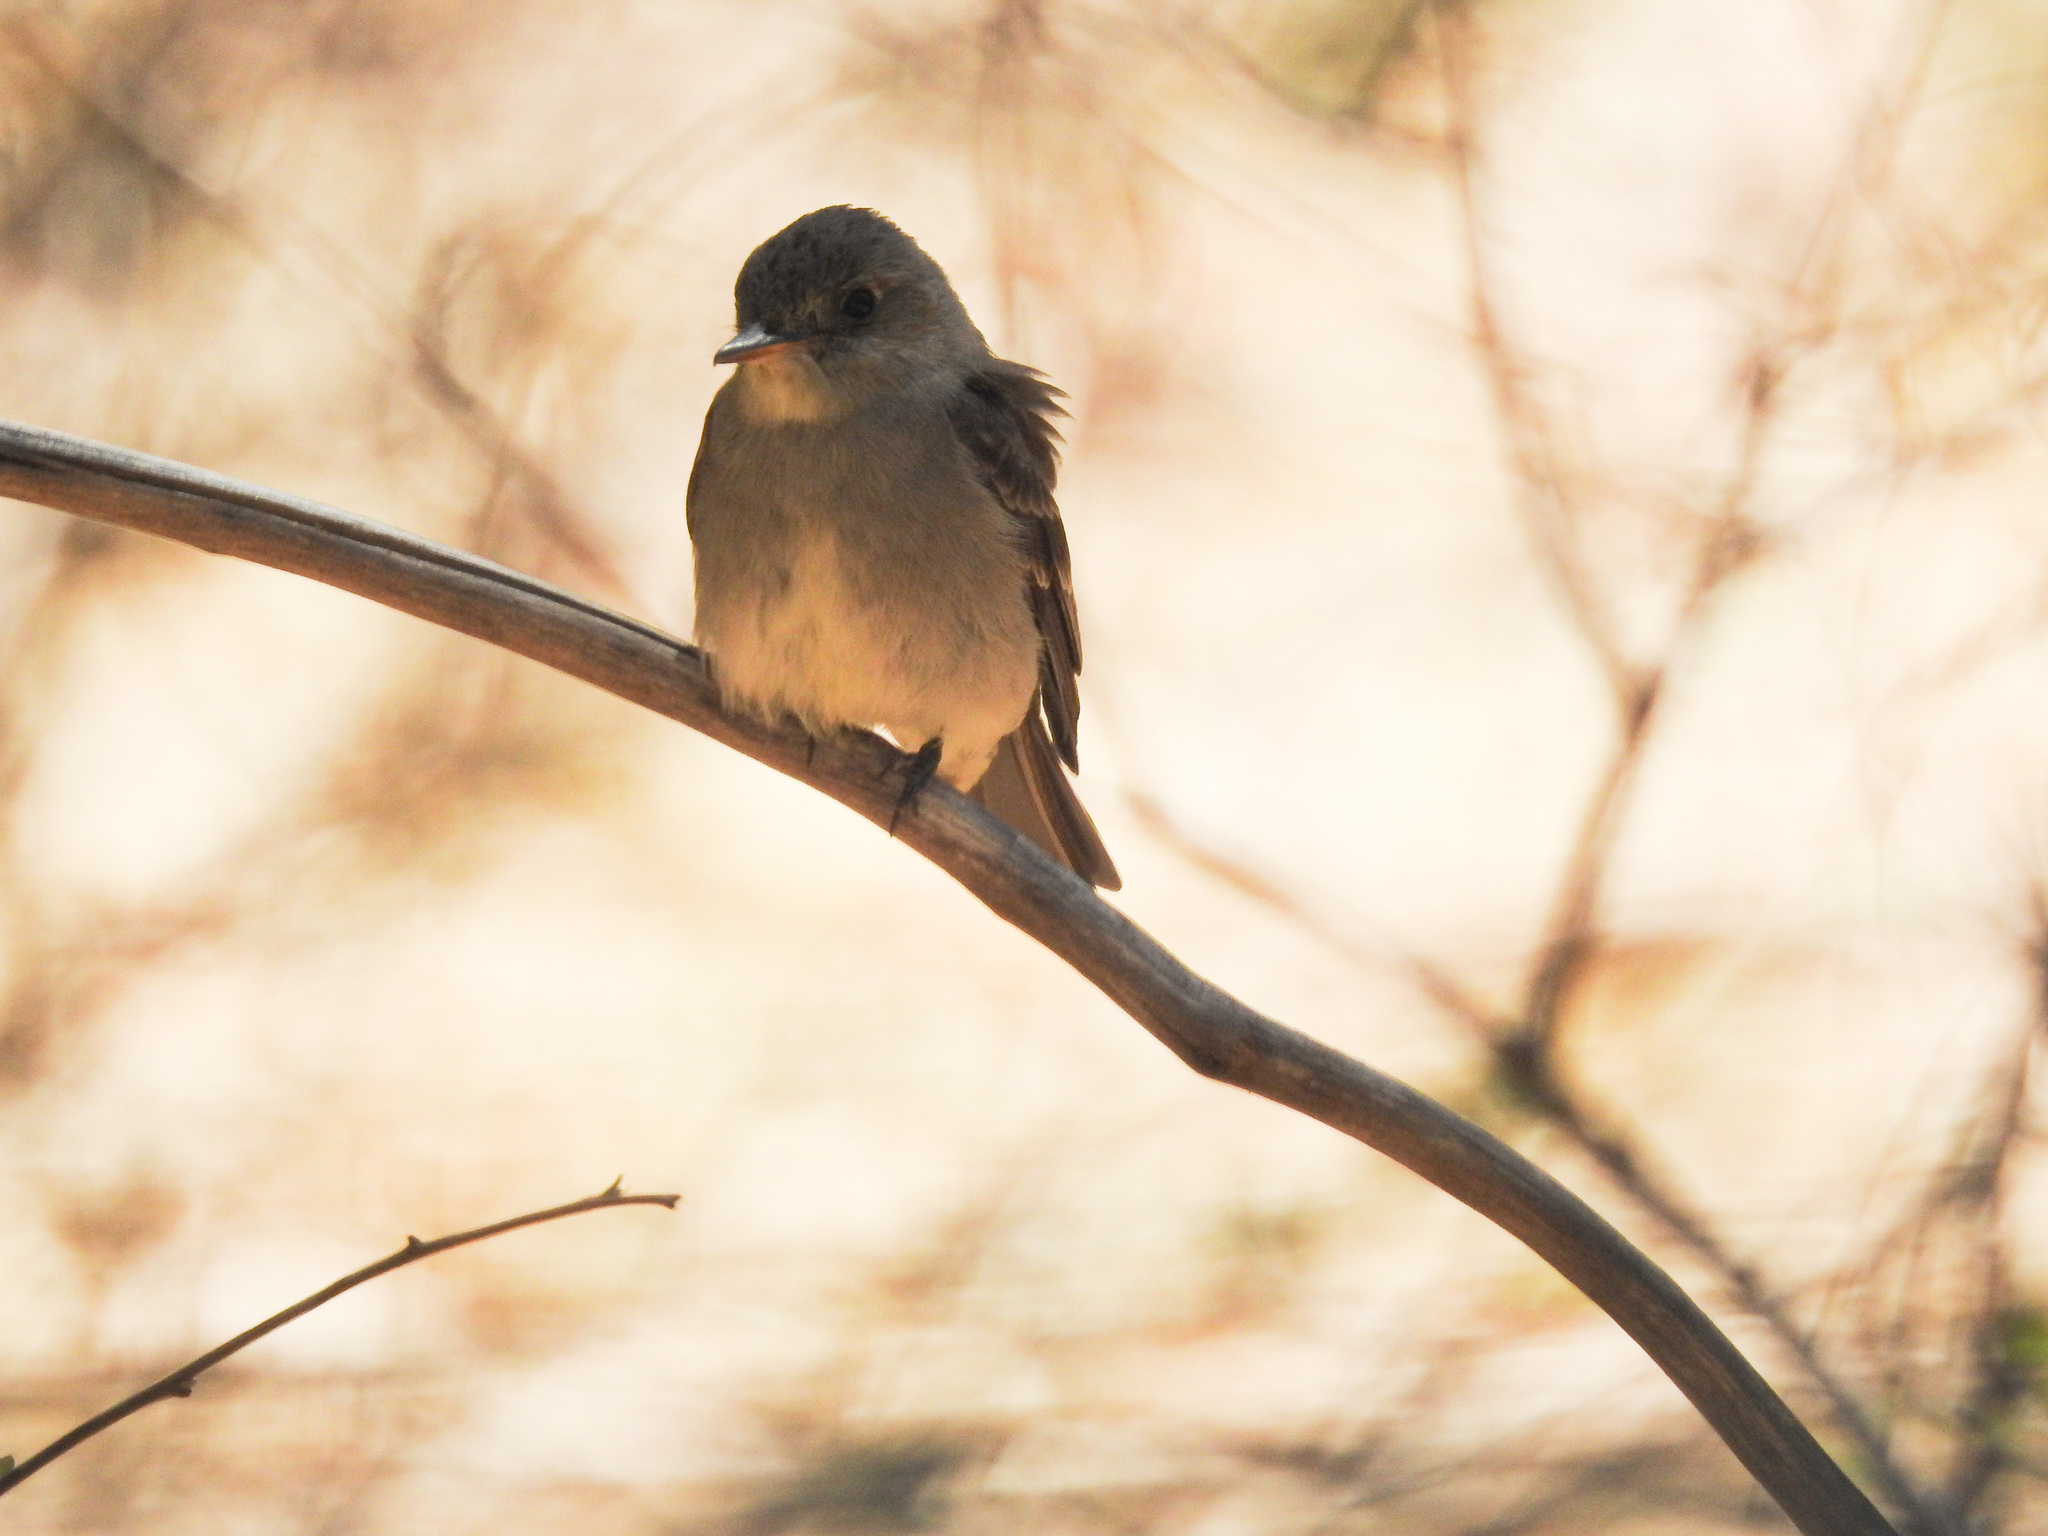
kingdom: Animalia
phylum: Chordata
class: Aves
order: Passeriformes
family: Tyrannidae
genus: Contopus
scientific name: Contopus sordidulus
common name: Western wood-pewee
